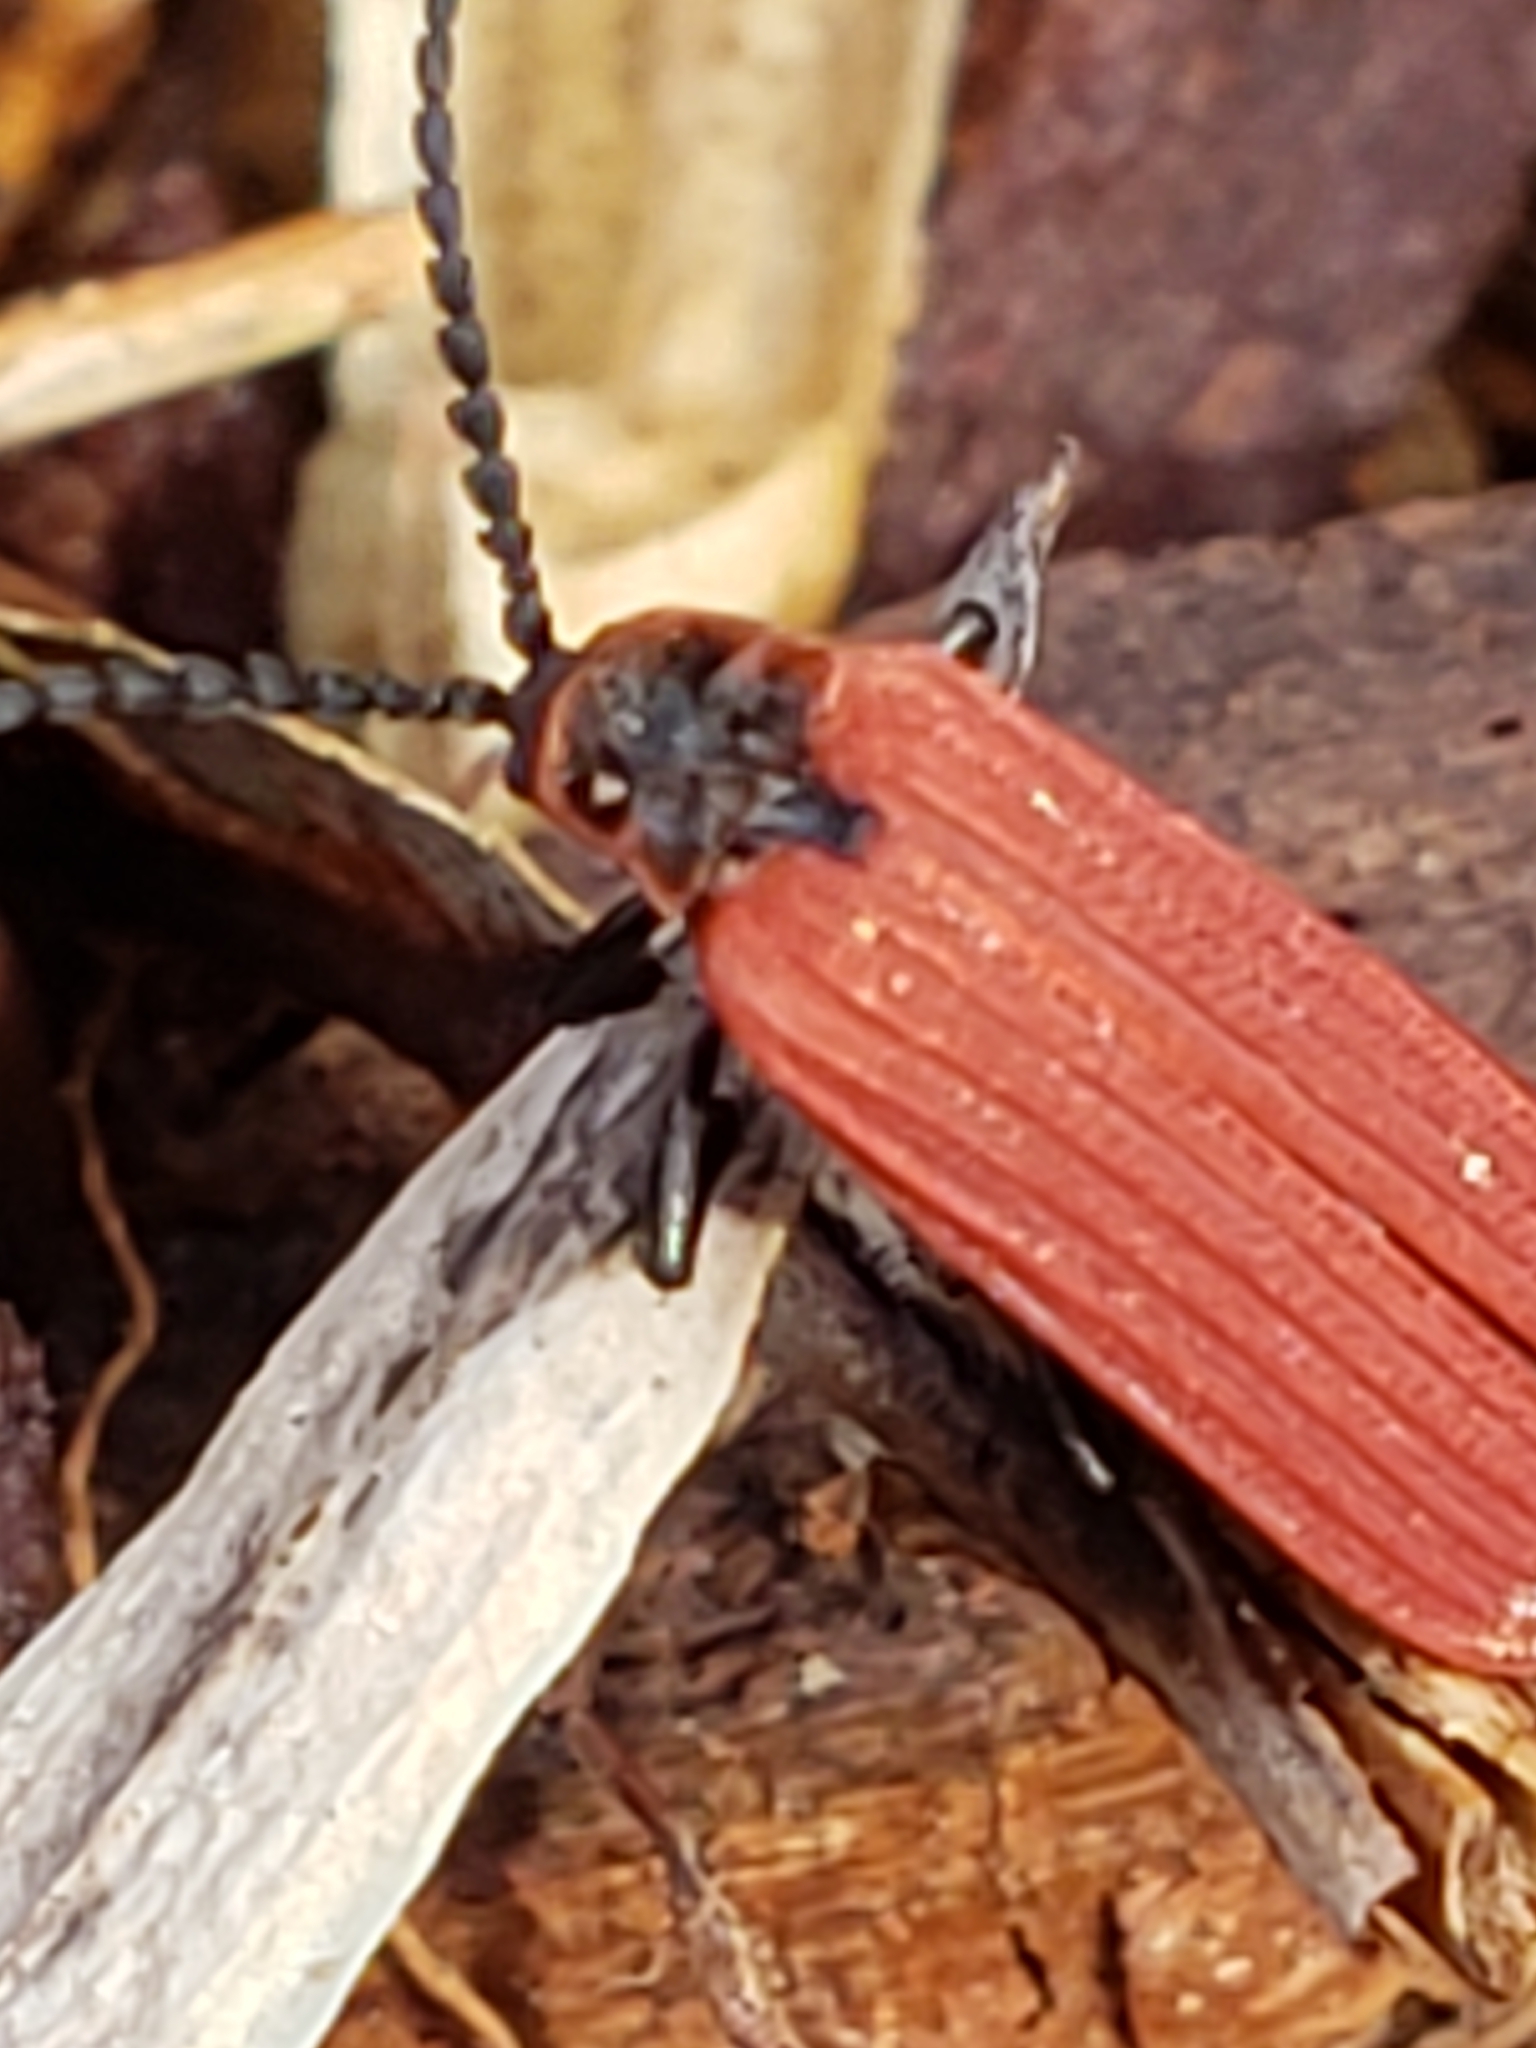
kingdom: Animalia
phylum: Arthropoda
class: Insecta
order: Coleoptera
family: Lycidae
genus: Dictyoptera
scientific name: Dictyoptera aurora
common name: Golden net-winged beetle
